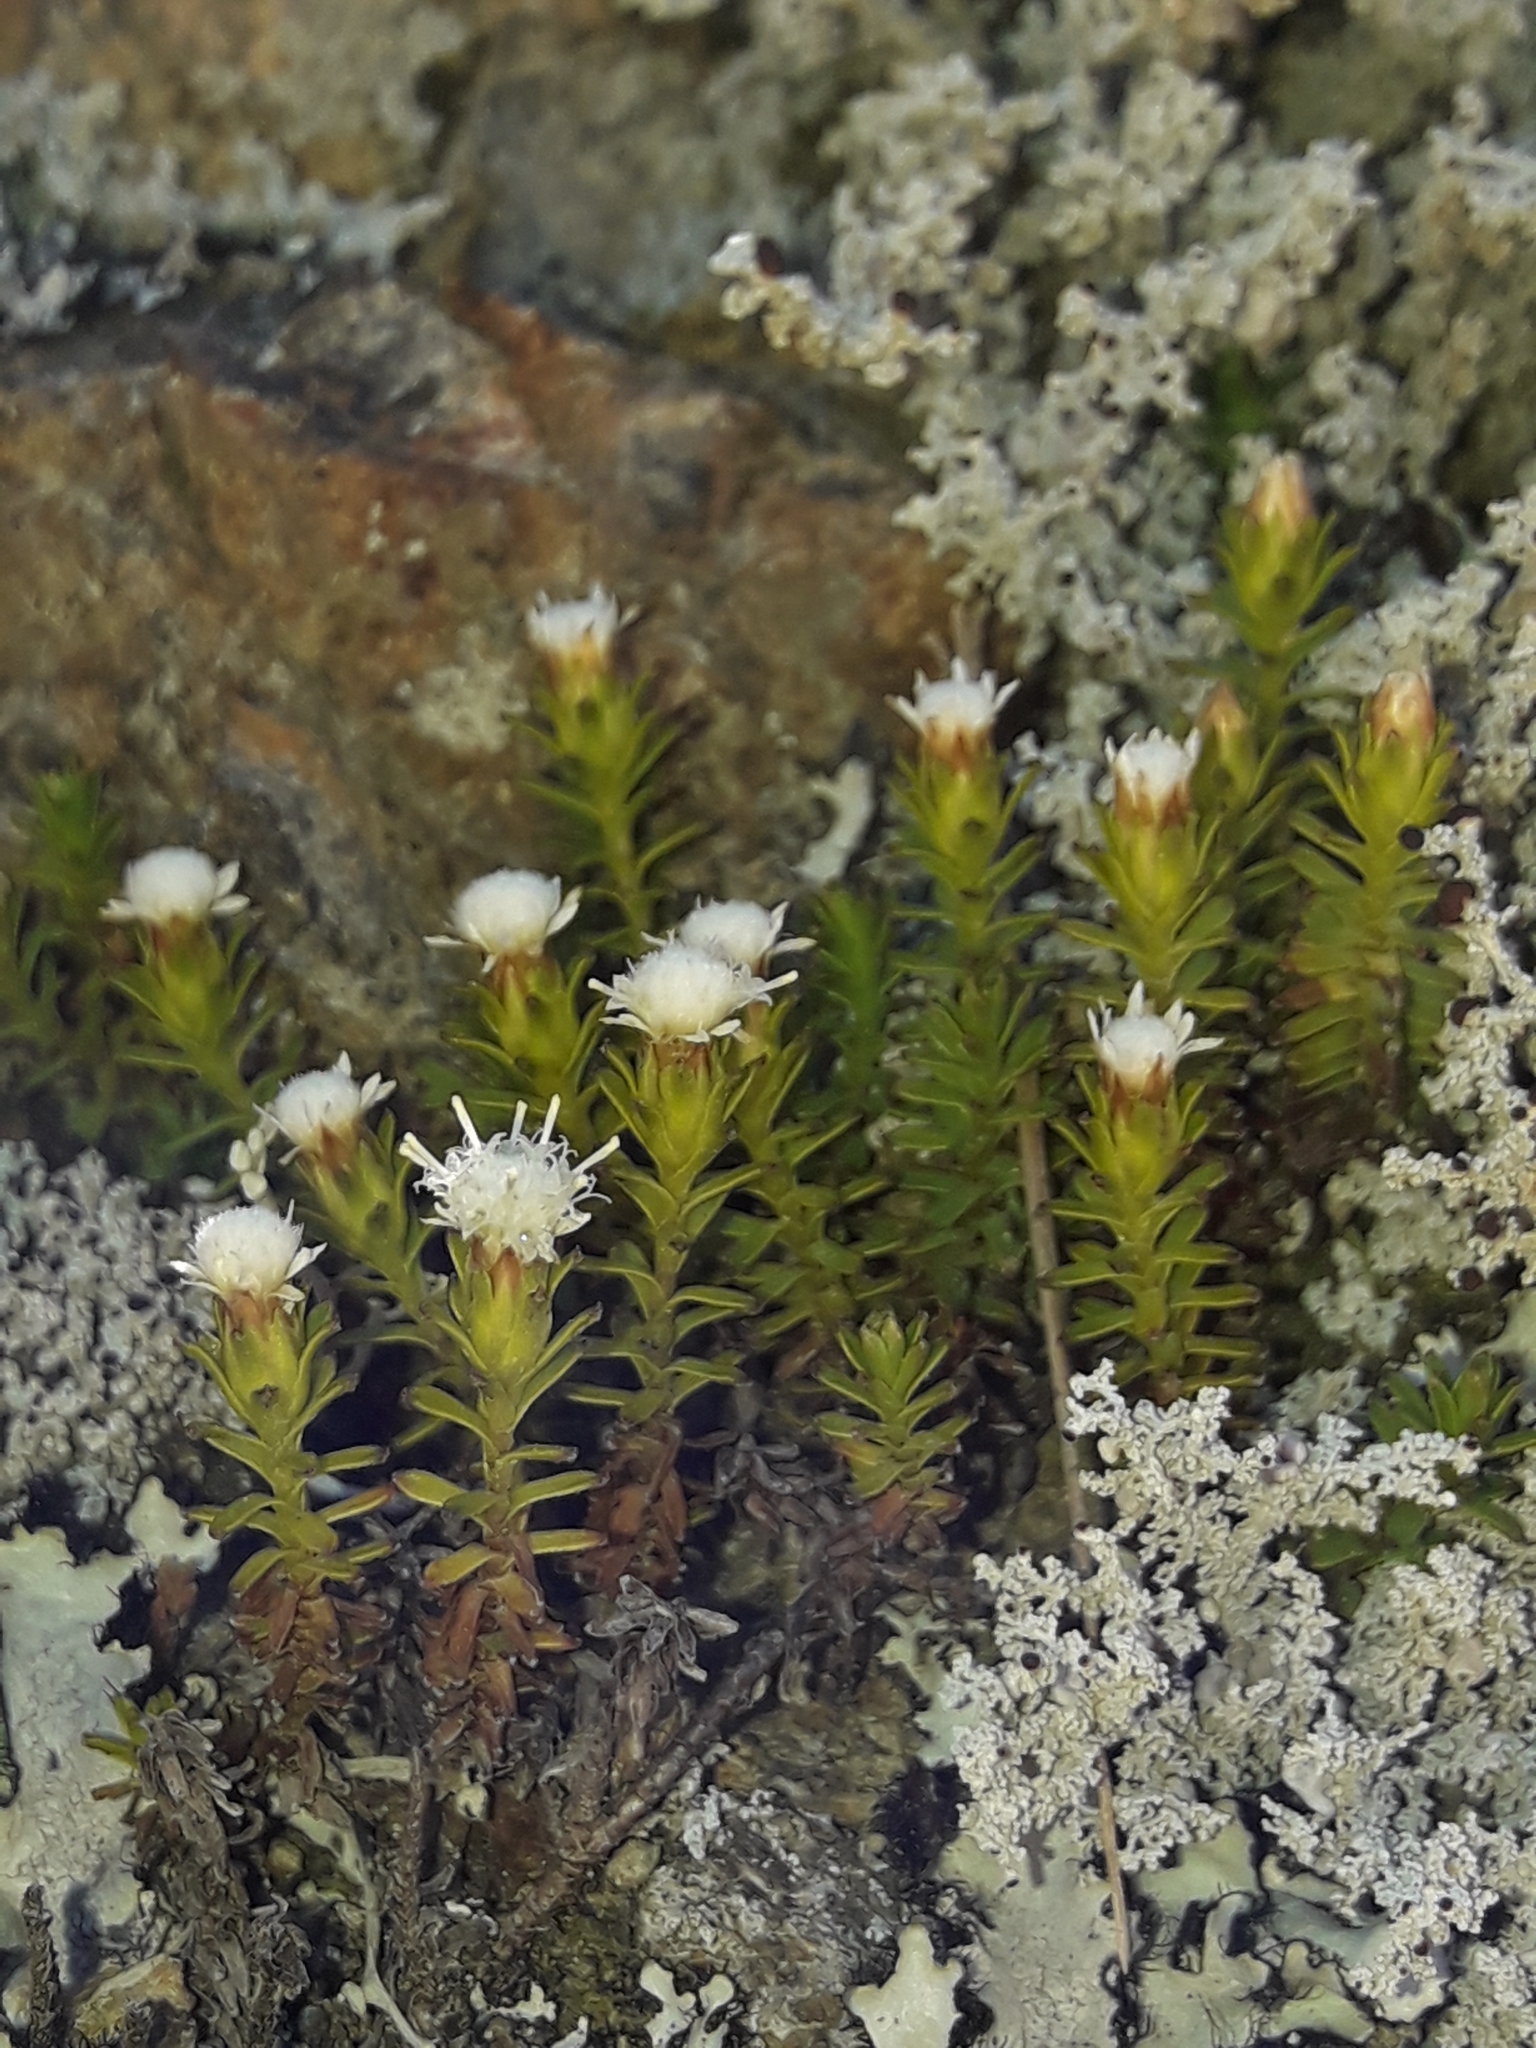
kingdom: Plantae
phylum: Tracheophyta
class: Magnoliopsida
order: Asterales
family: Asteraceae
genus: Raoulia
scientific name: Raoulia glabra
